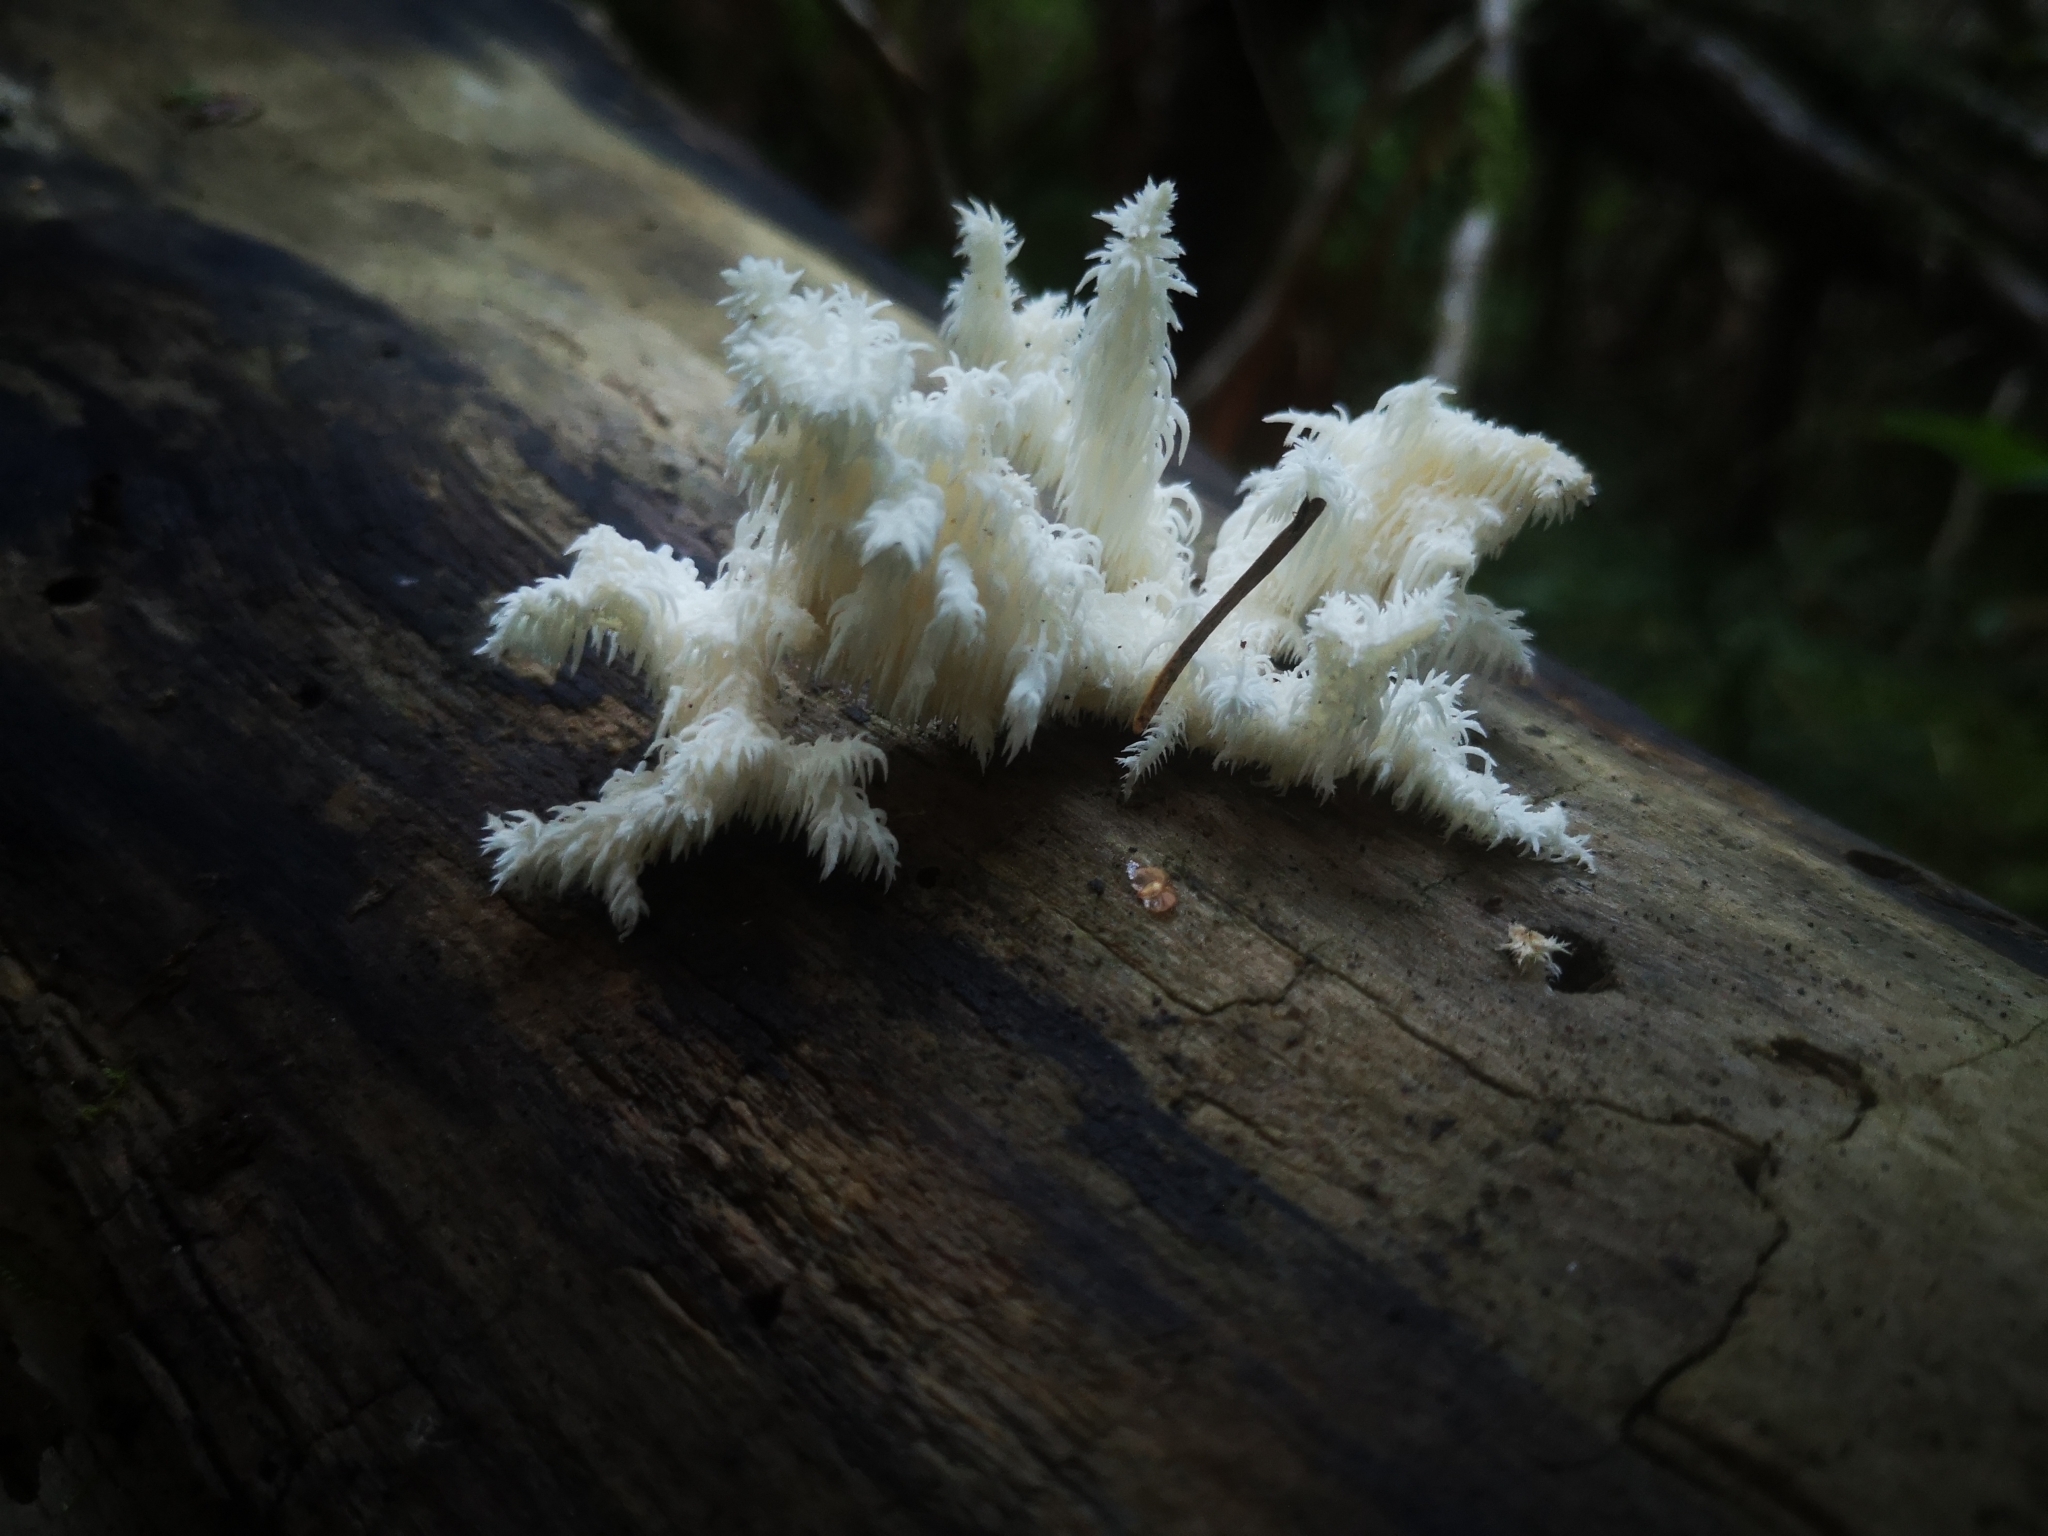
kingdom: Fungi
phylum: Basidiomycota
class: Agaricomycetes
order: Russulales
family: Hericiaceae
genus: Hericium
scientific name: Hericium coralloides
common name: Coral tooth
